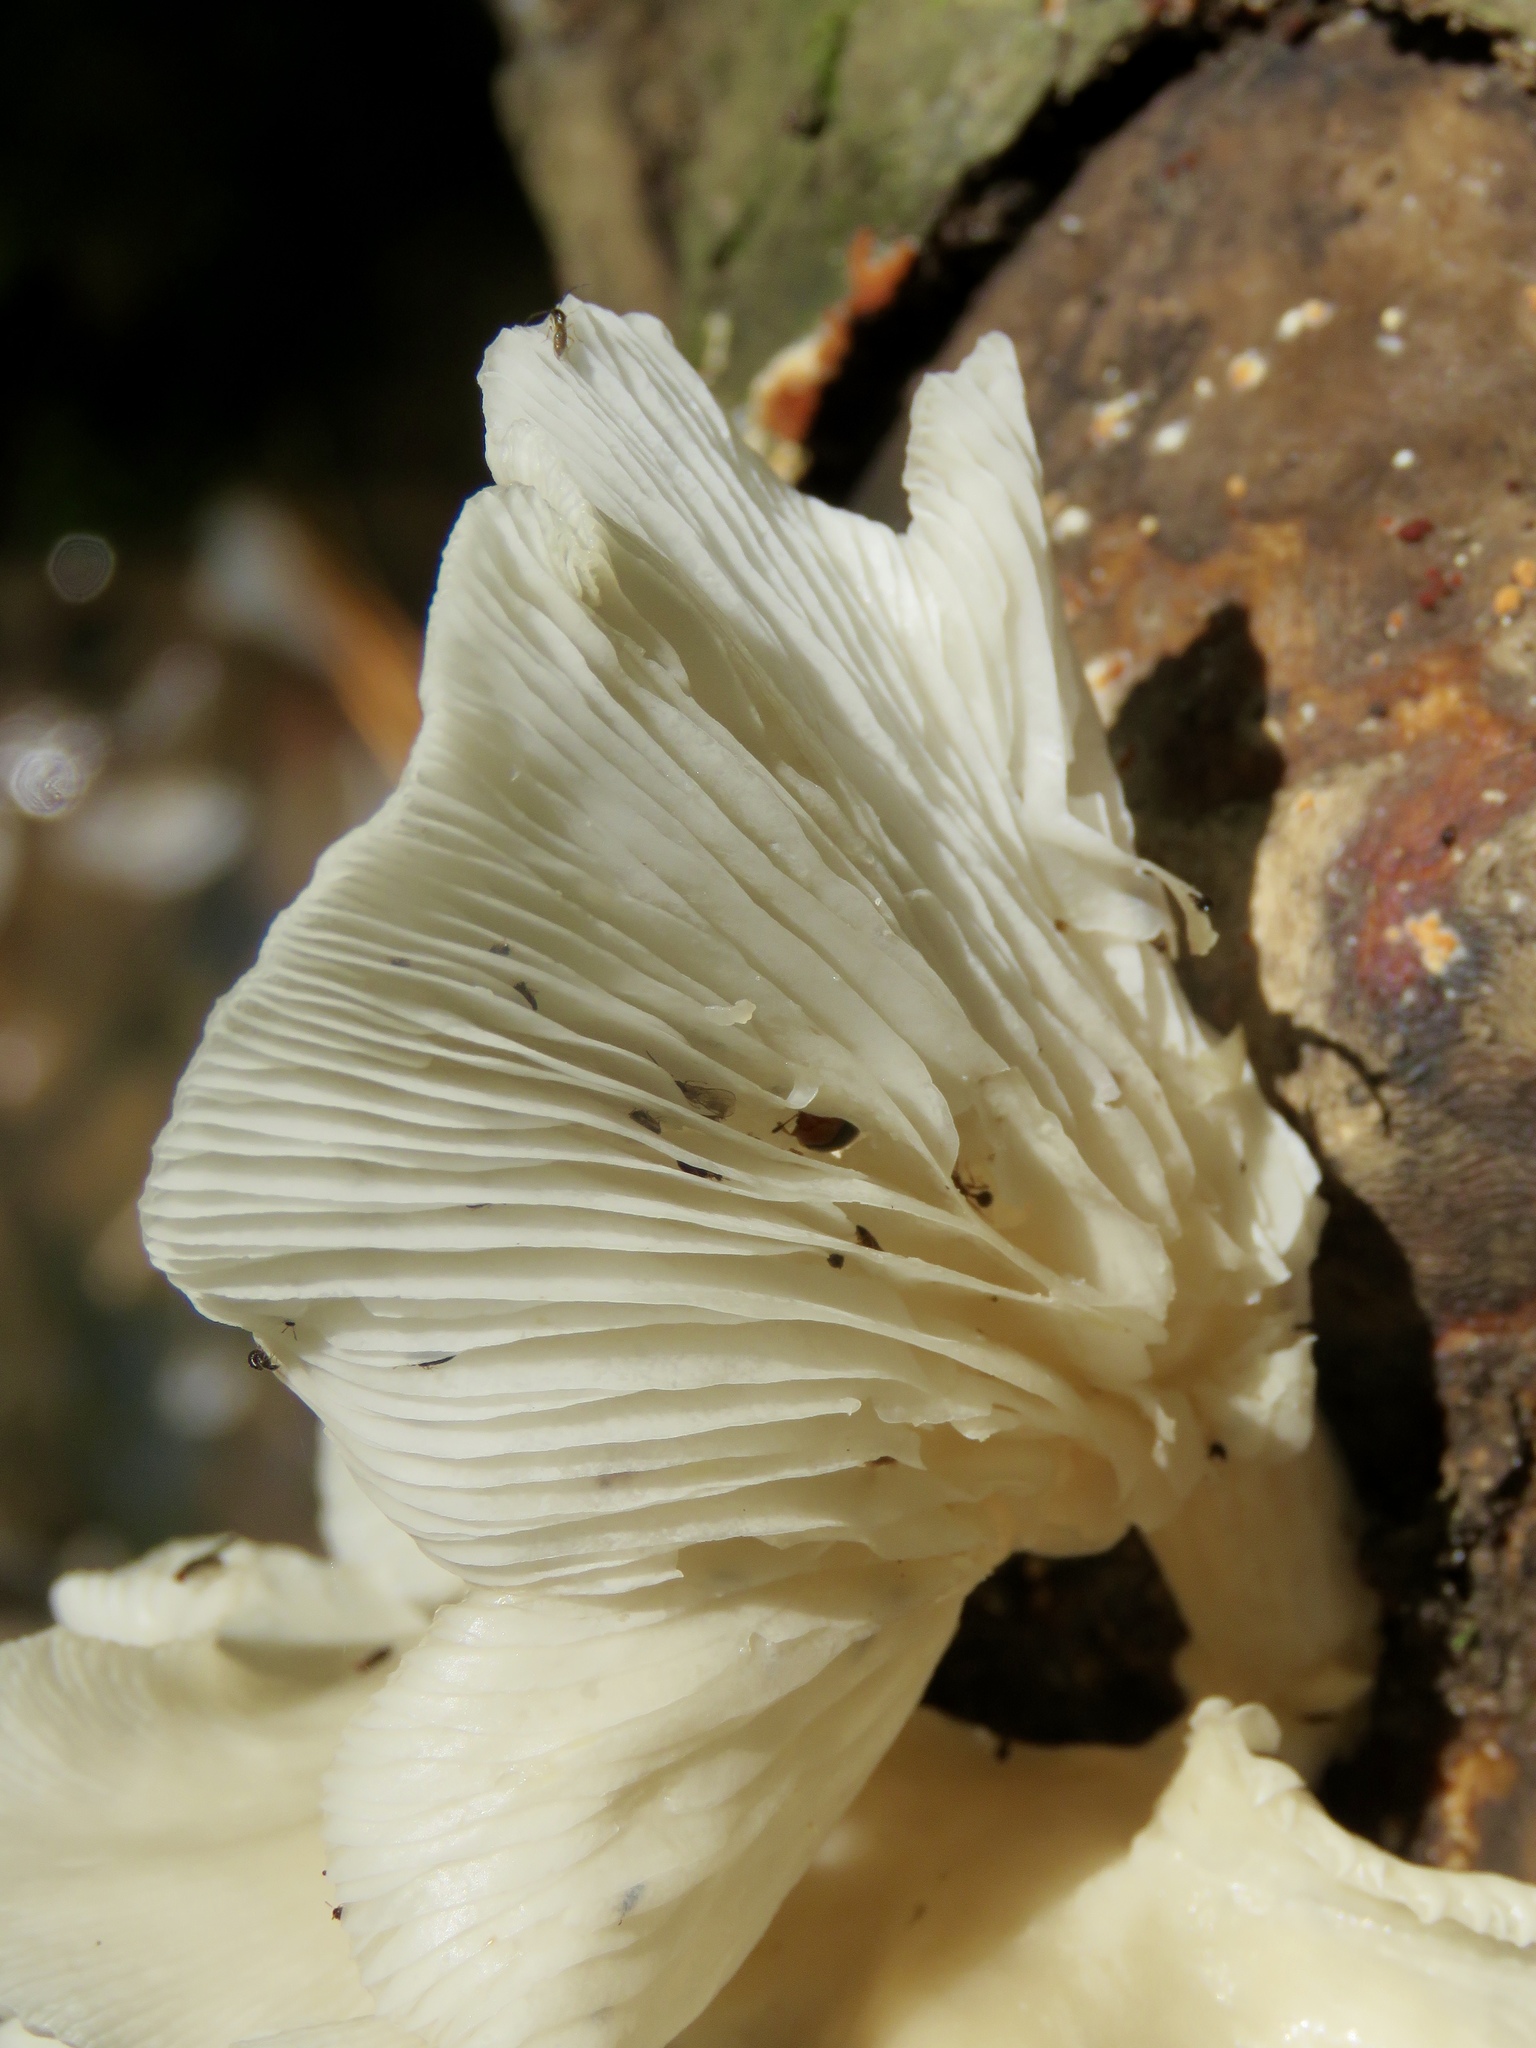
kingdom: Fungi
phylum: Basidiomycota
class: Agaricomycetes
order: Agaricales
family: Pleurotaceae
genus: Pleurotus
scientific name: Pleurotus ostreatus
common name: Oyster mushroom
